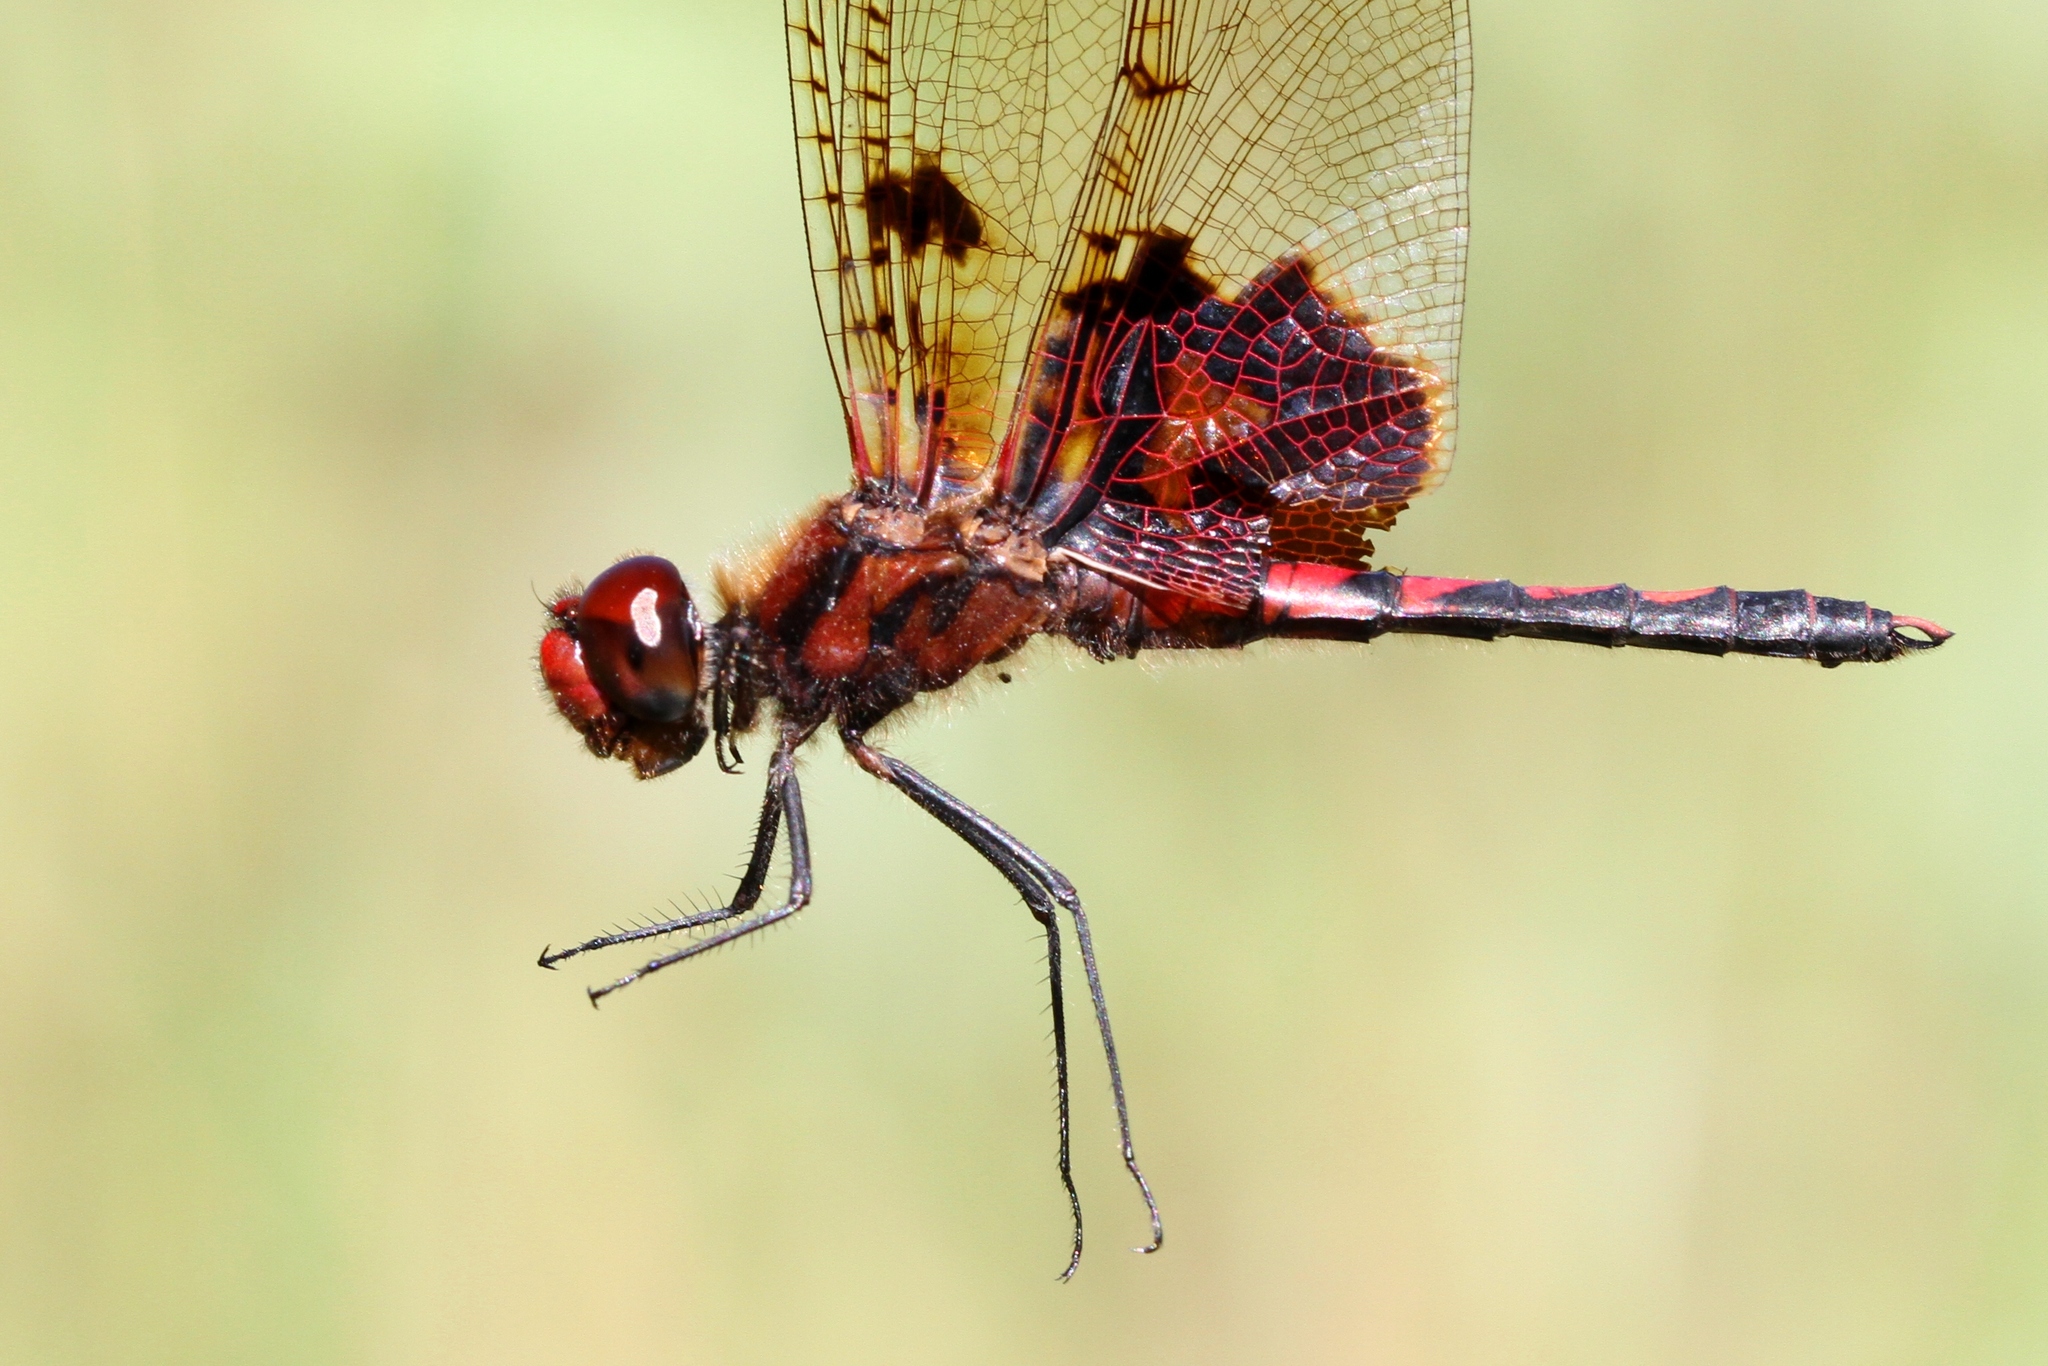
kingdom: Animalia
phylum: Arthropoda
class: Insecta
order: Odonata
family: Libellulidae
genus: Celithemis
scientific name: Celithemis elisa
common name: Calico pennant
